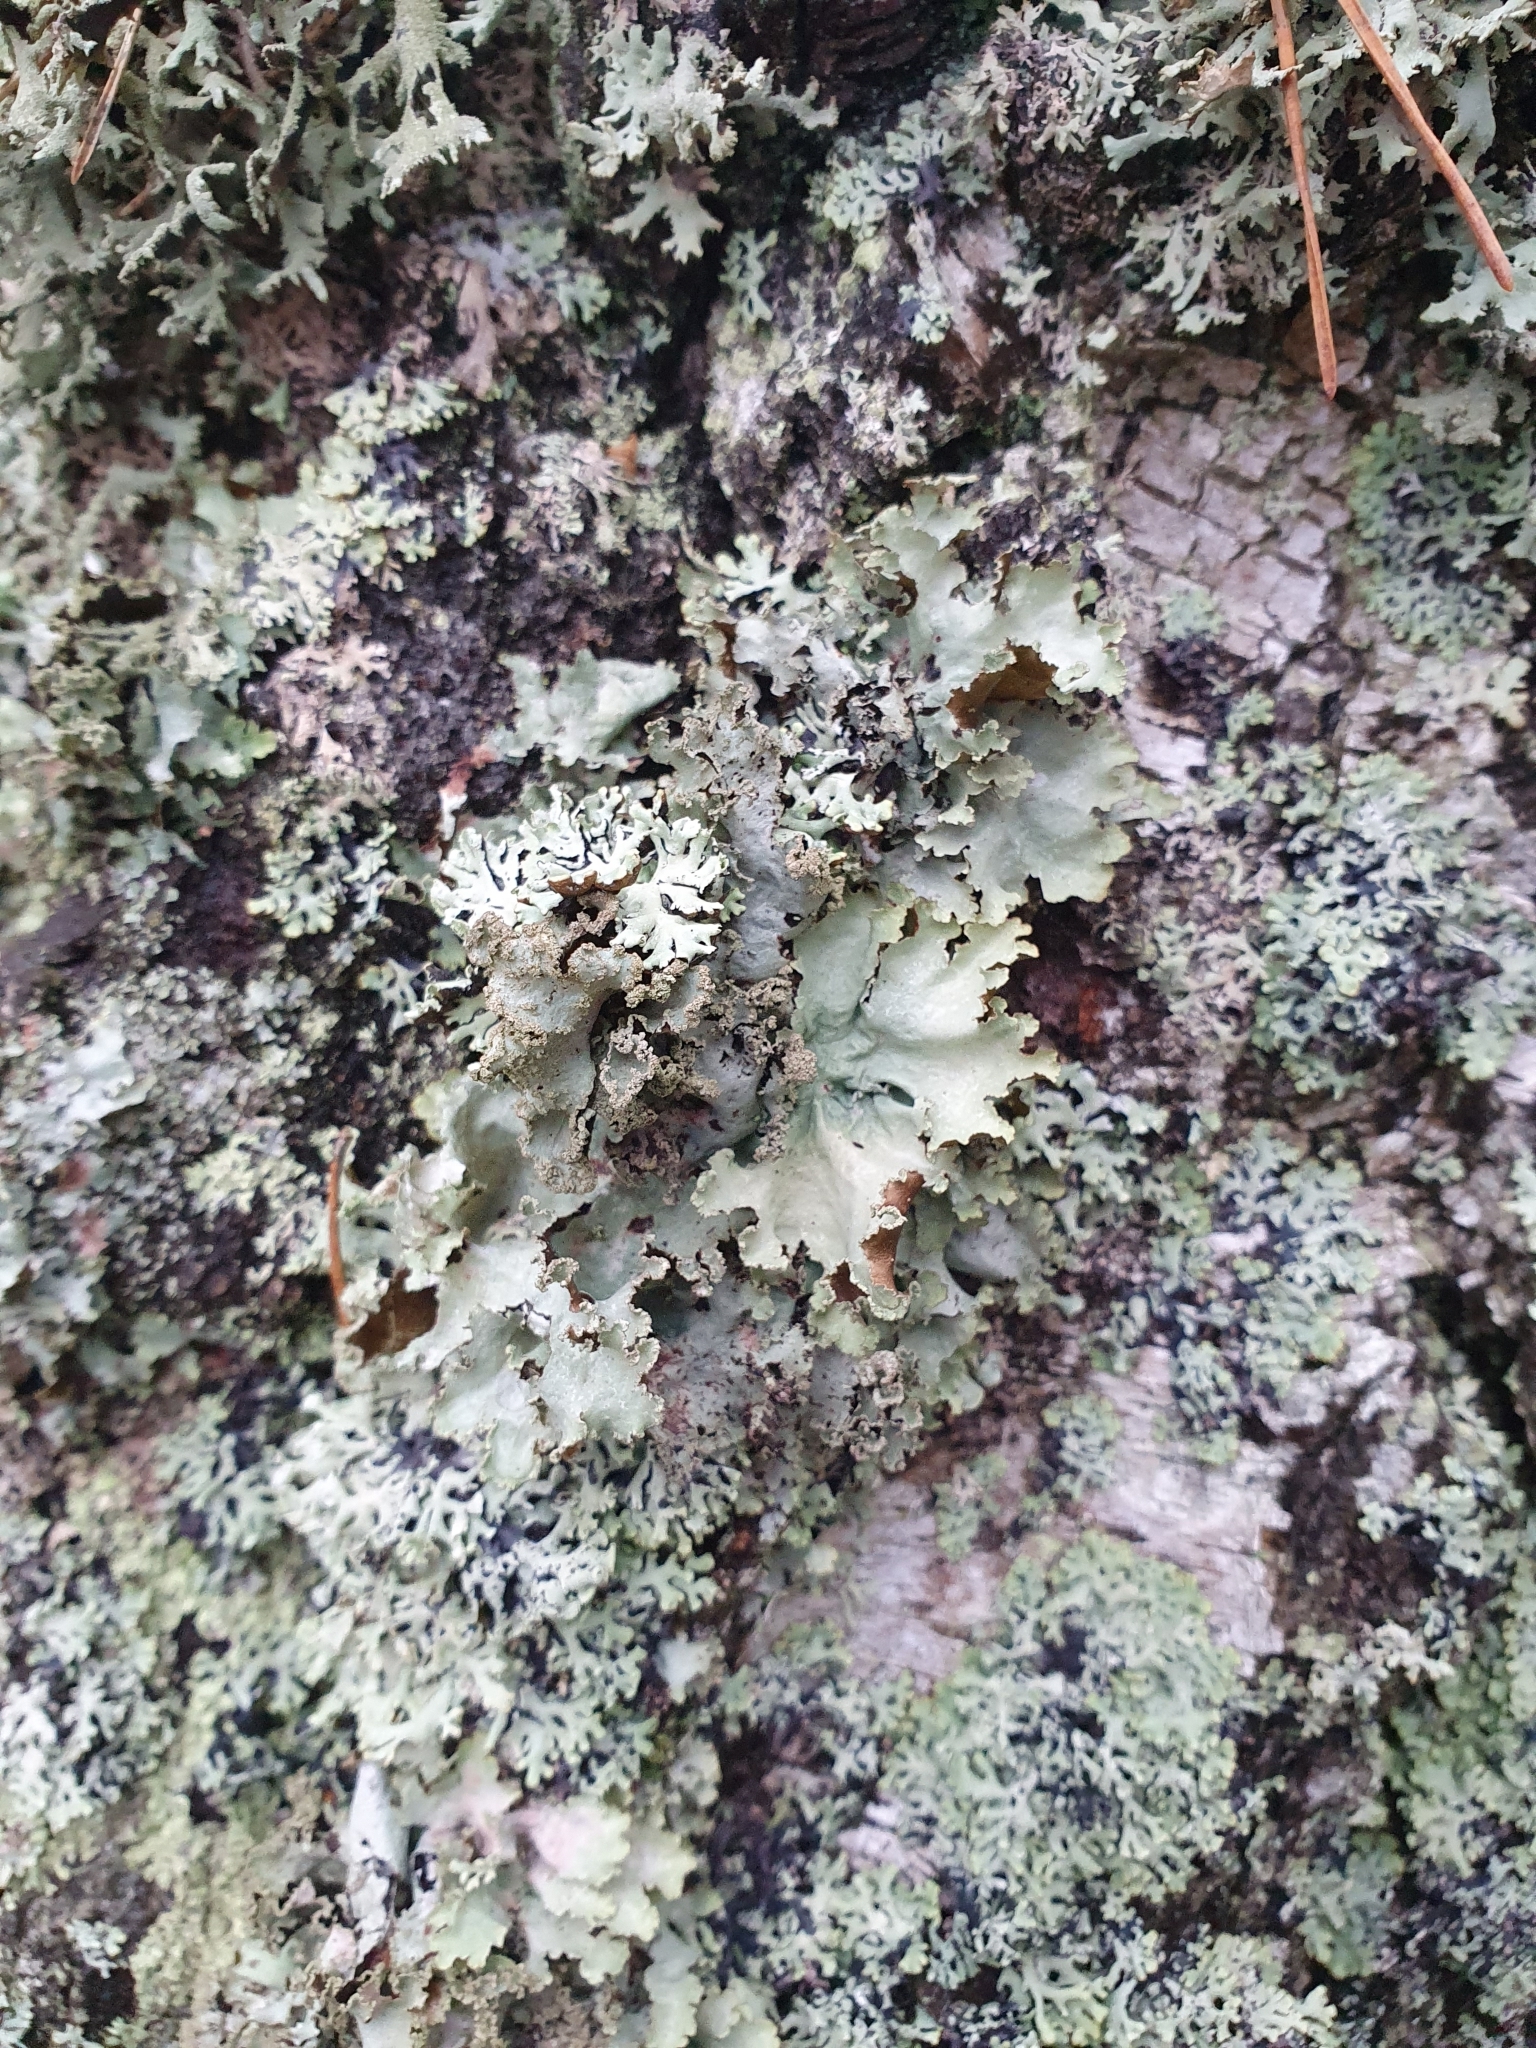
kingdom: Fungi
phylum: Ascomycota
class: Lecanoromycetes
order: Lecanorales
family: Parmeliaceae
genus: Platismatia
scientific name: Platismatia glauca
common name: Varied rag lichen
